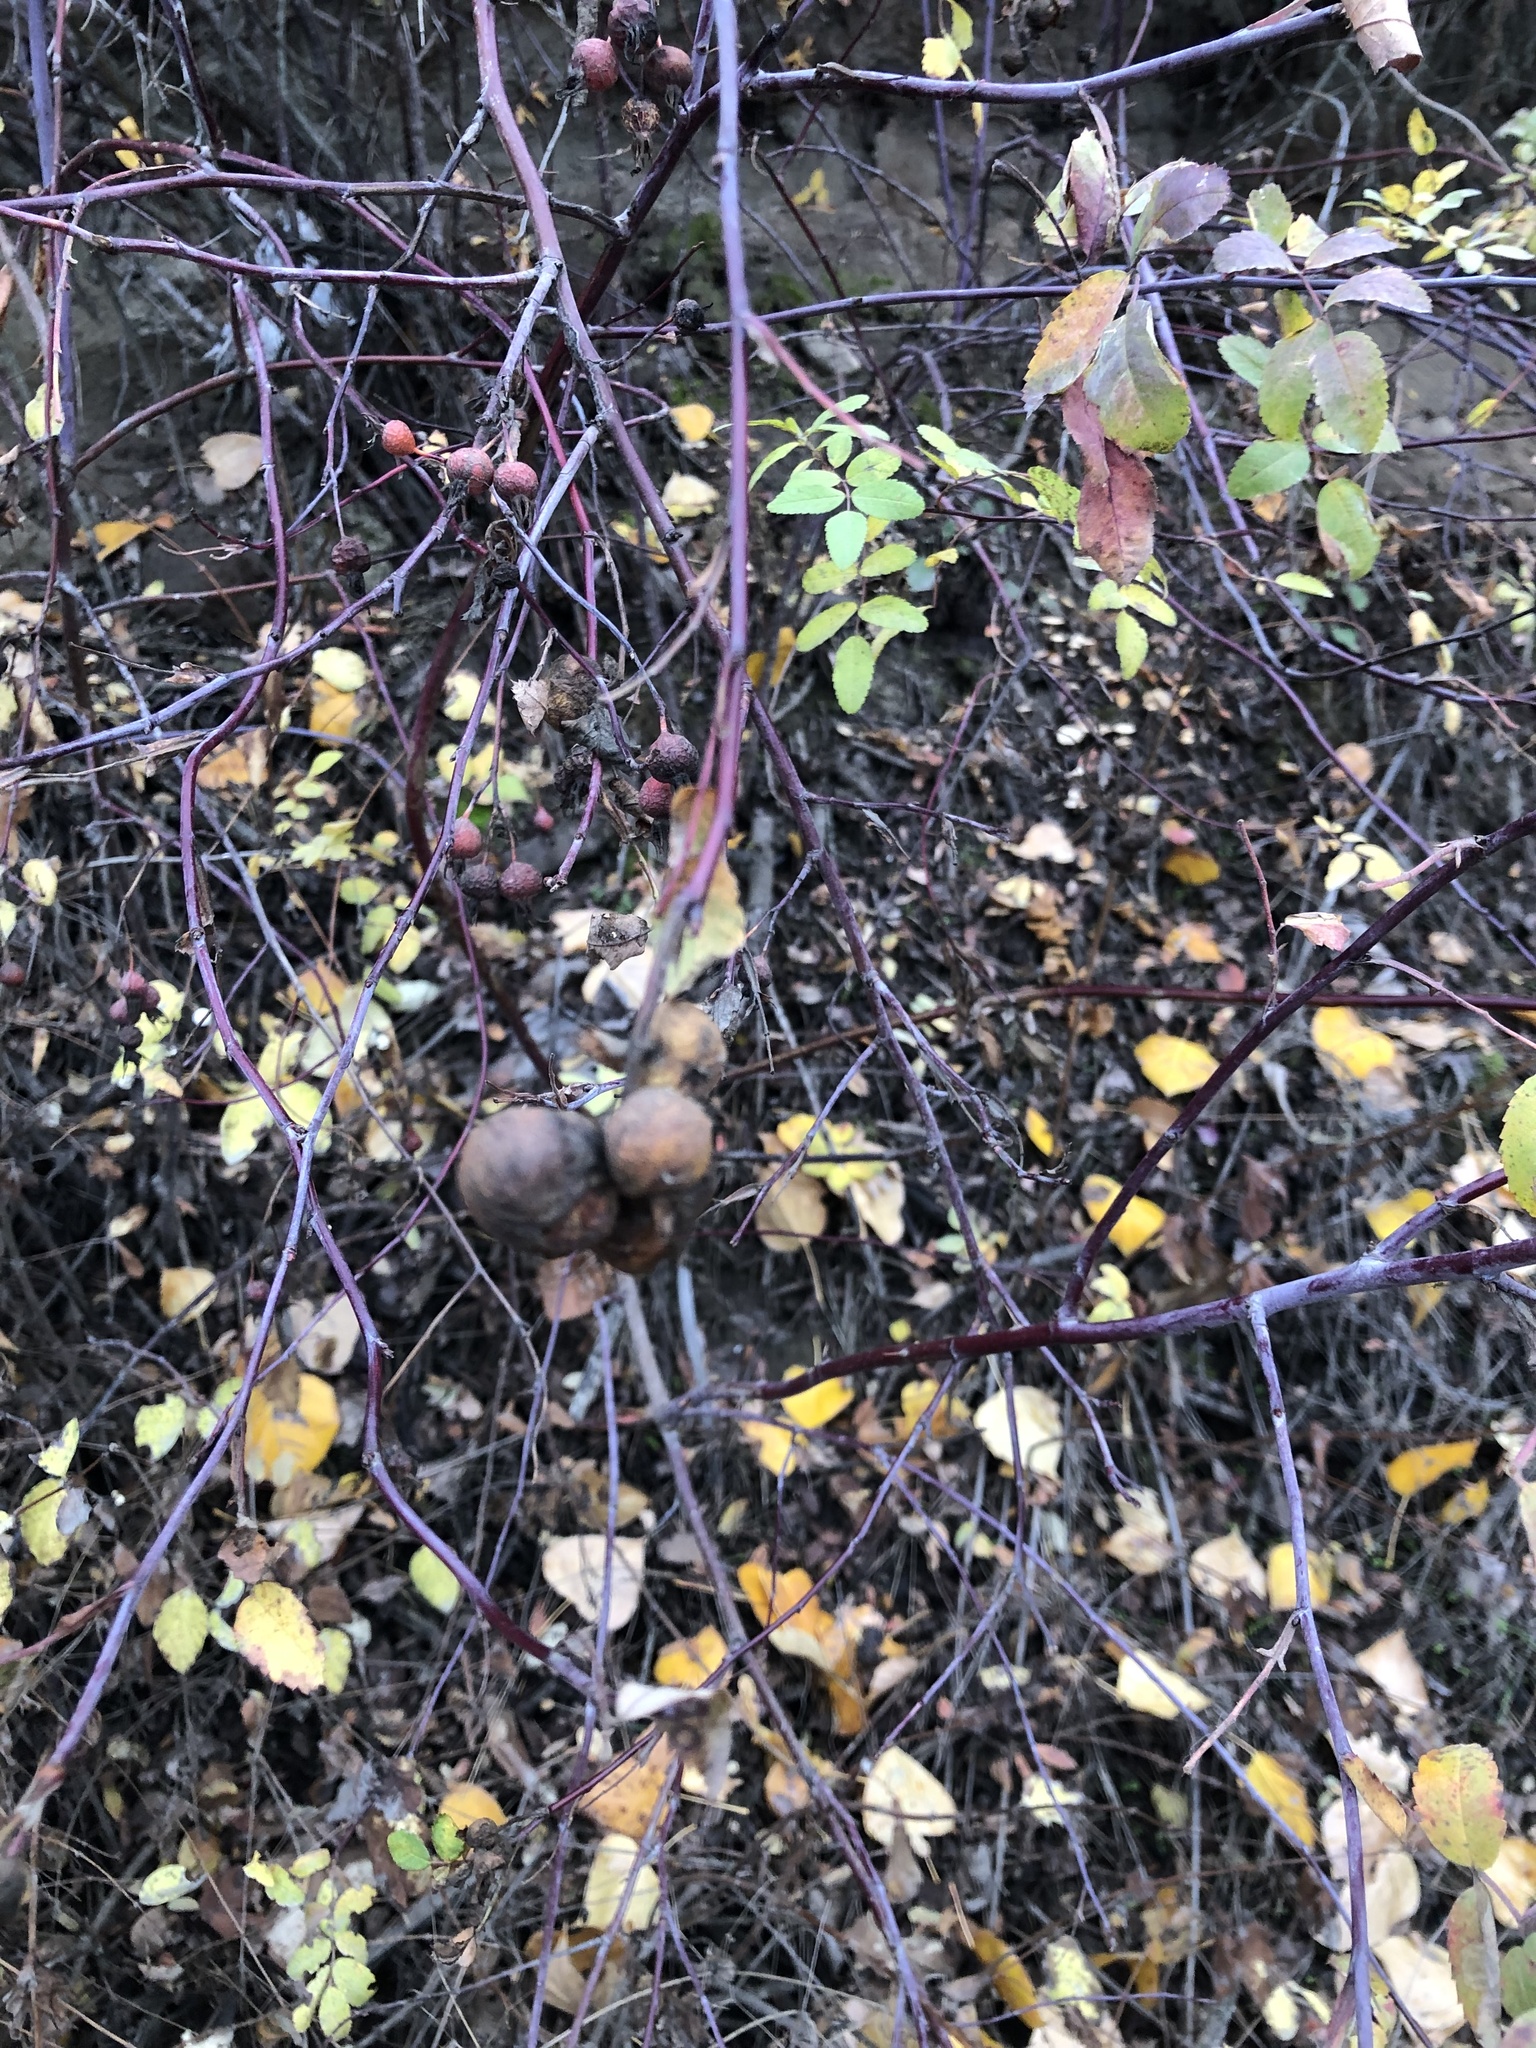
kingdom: Animalia
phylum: Arthropoda
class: Insecta
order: Hymenoptera
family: Cynipidae
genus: Diplolepis
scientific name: Diplolepis variabilis
